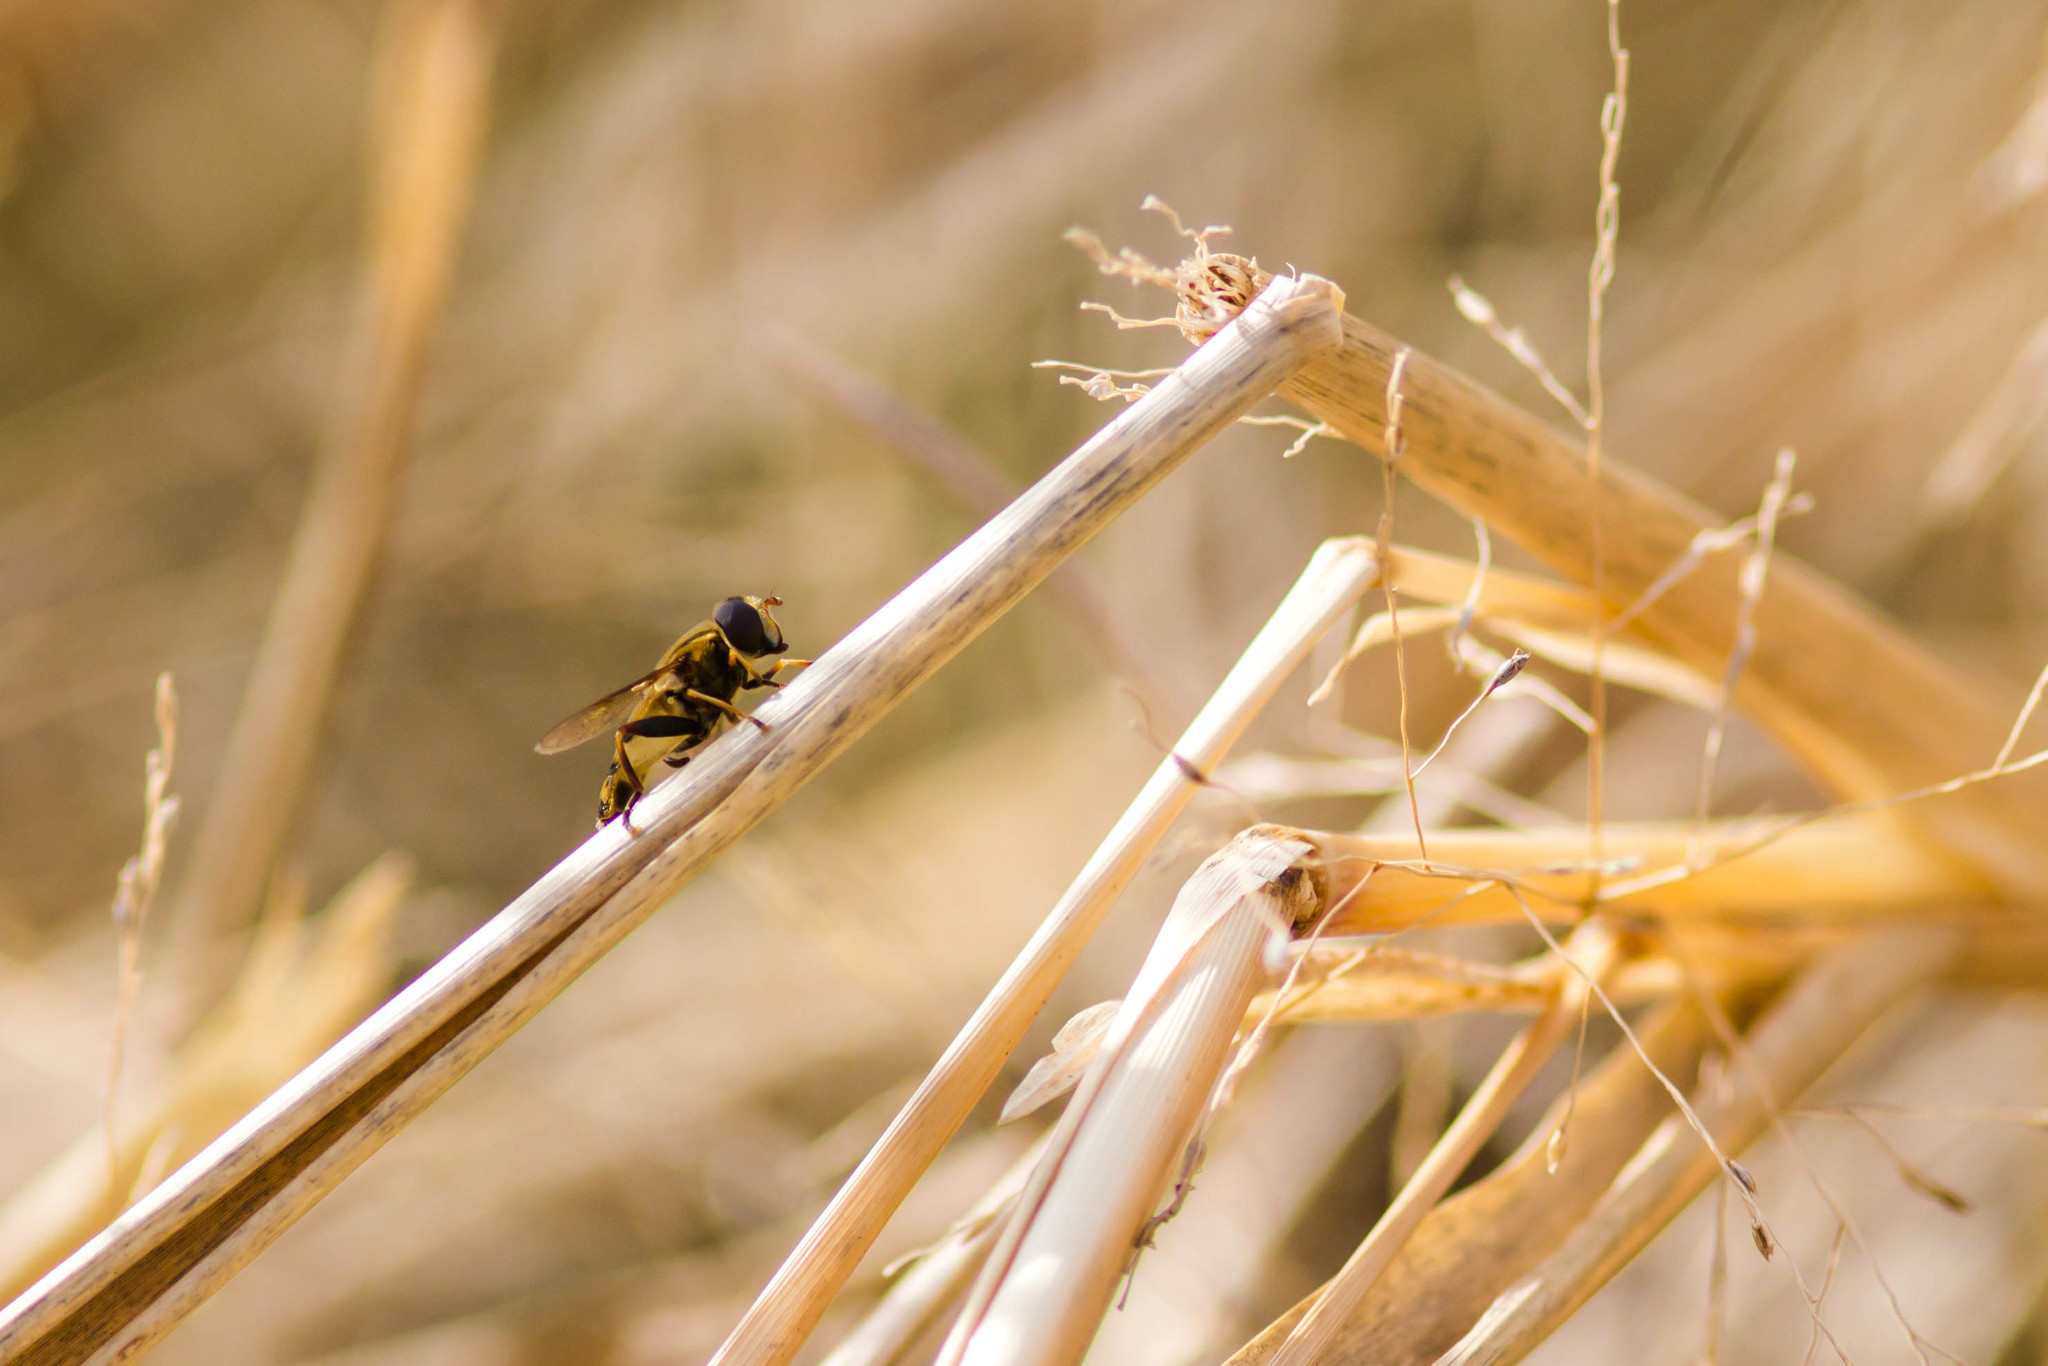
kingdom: Animalia
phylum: Arthropoda
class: Insecta
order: Diptera
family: Syrphidae
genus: Helophilus
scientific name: Helophilus fasciatus
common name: Narrow-headed marsh fly
